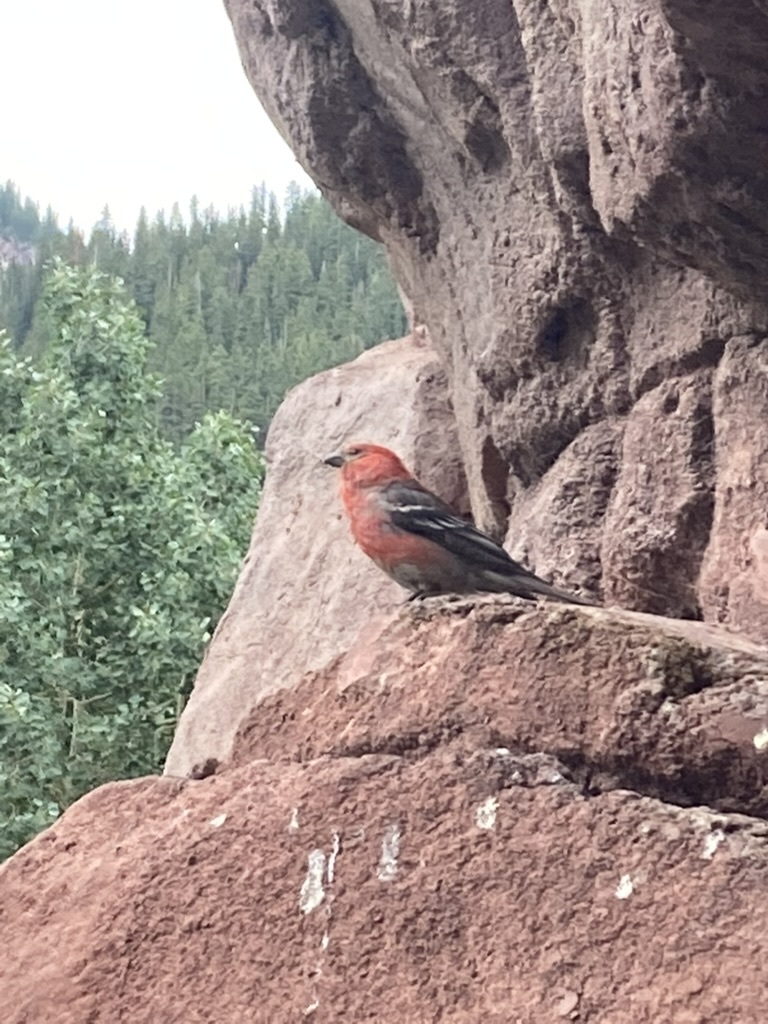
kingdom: Animalia
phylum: Chordata
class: Aves
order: Passeriformes
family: Fringillidae
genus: Pinicola
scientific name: Pinicola enucleator
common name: Pine grosbeak
